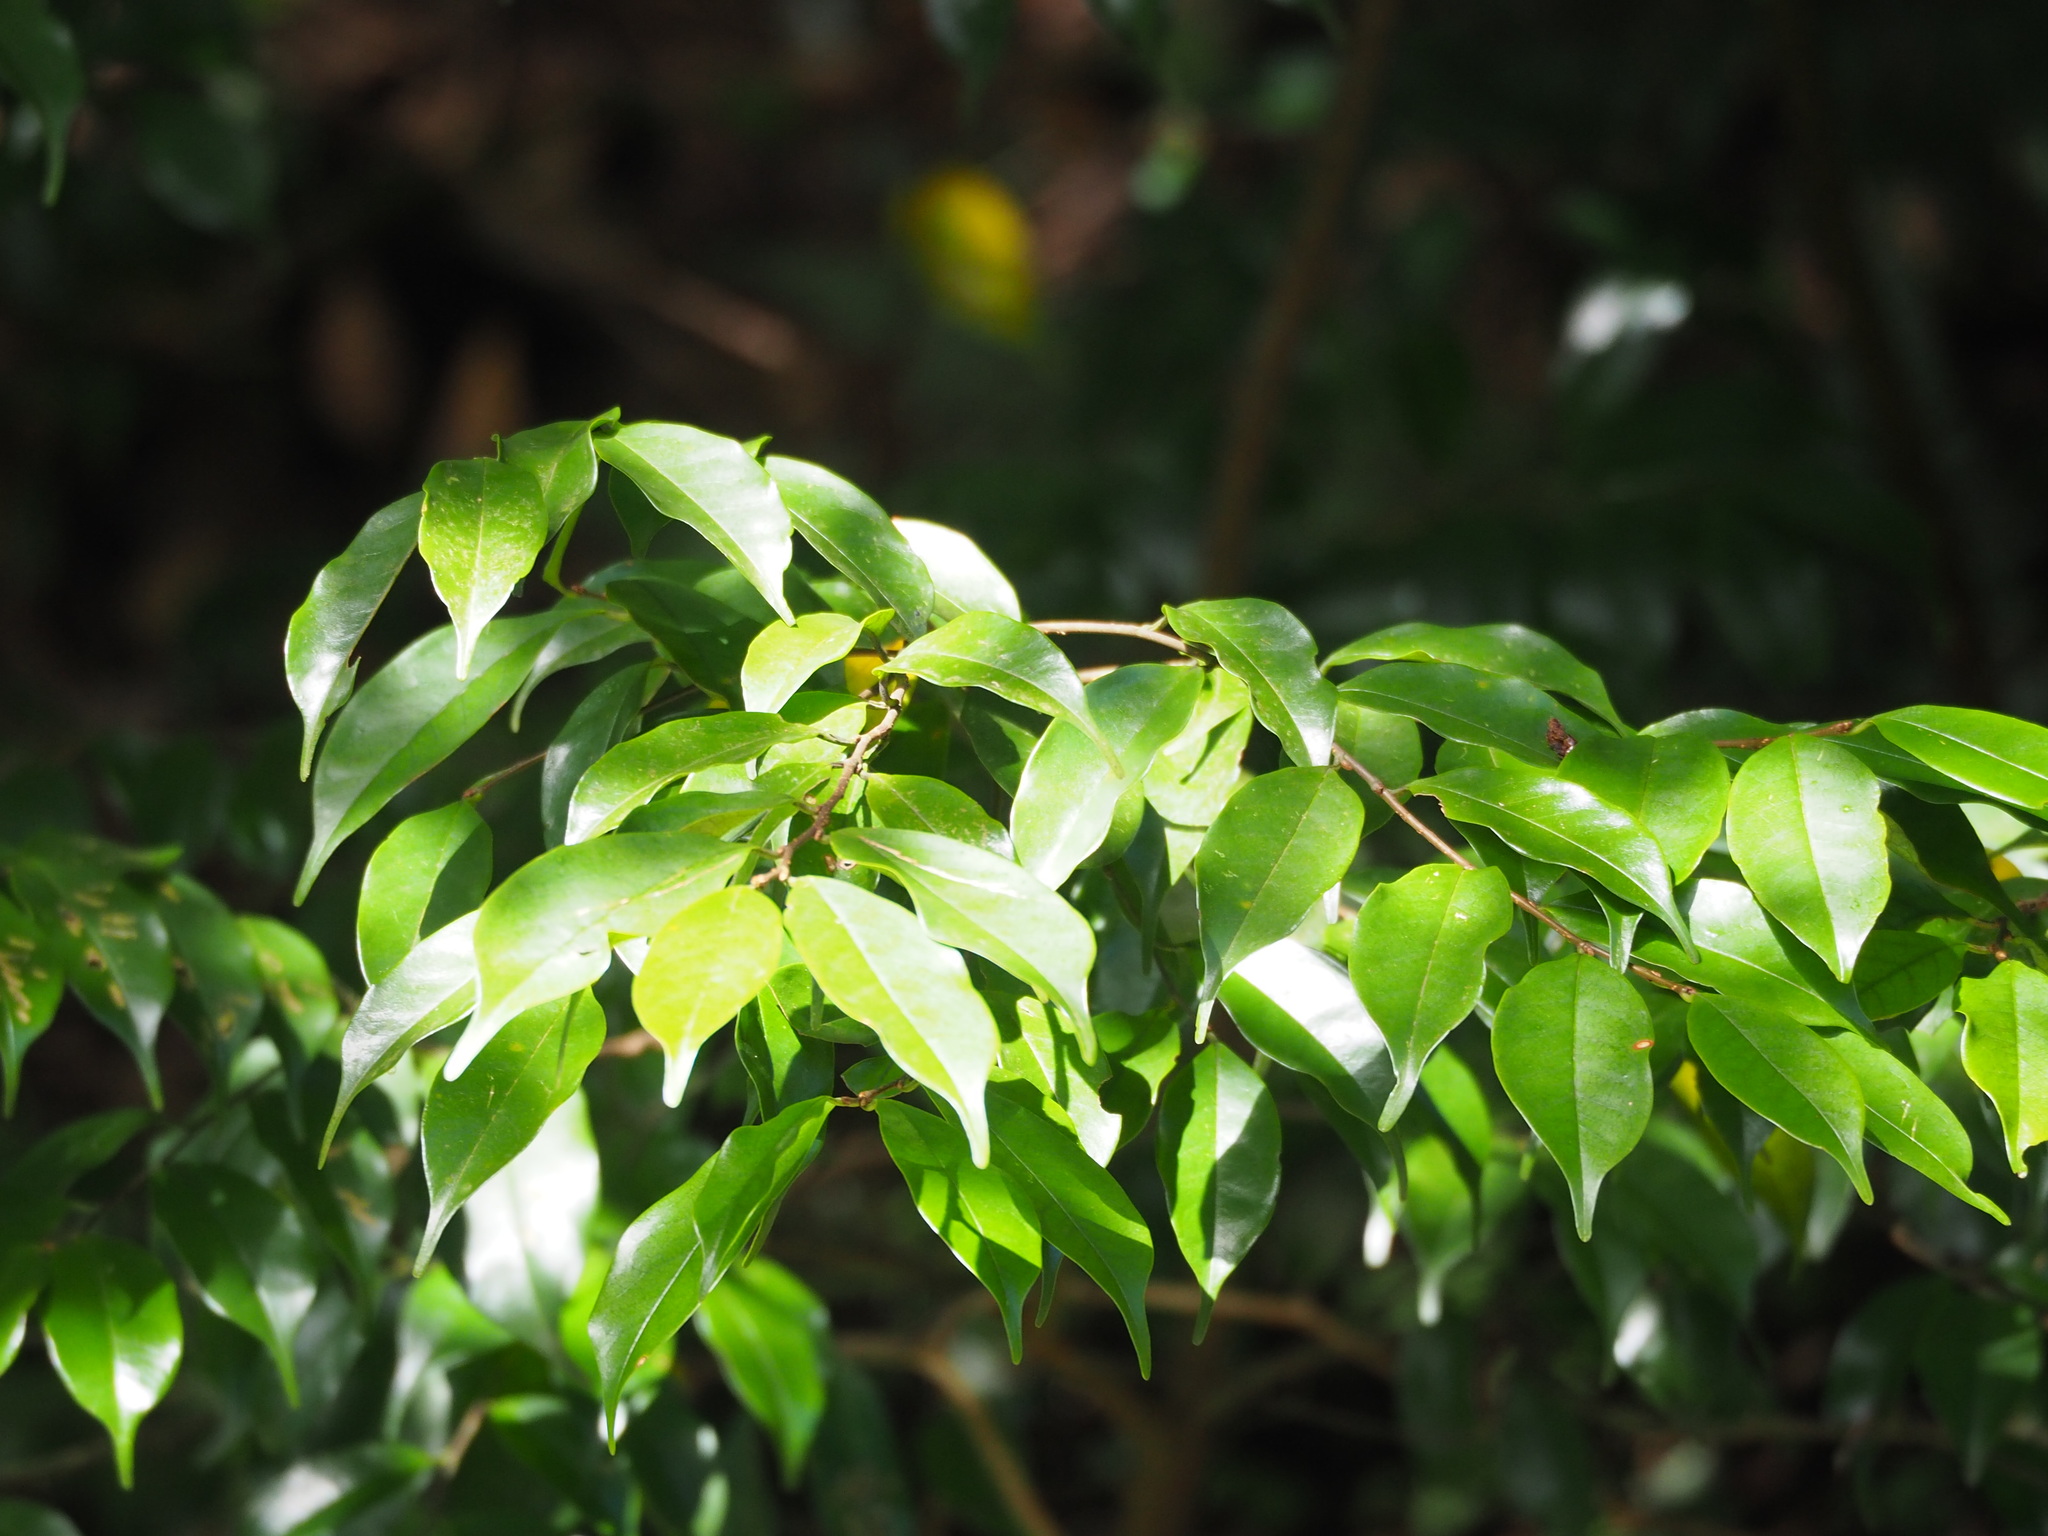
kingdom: Plantae
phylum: Tracheophyta
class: Magnoliopsida
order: Rosales
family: Rosaceae
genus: Prunus
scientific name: Prunus phaeosticta
